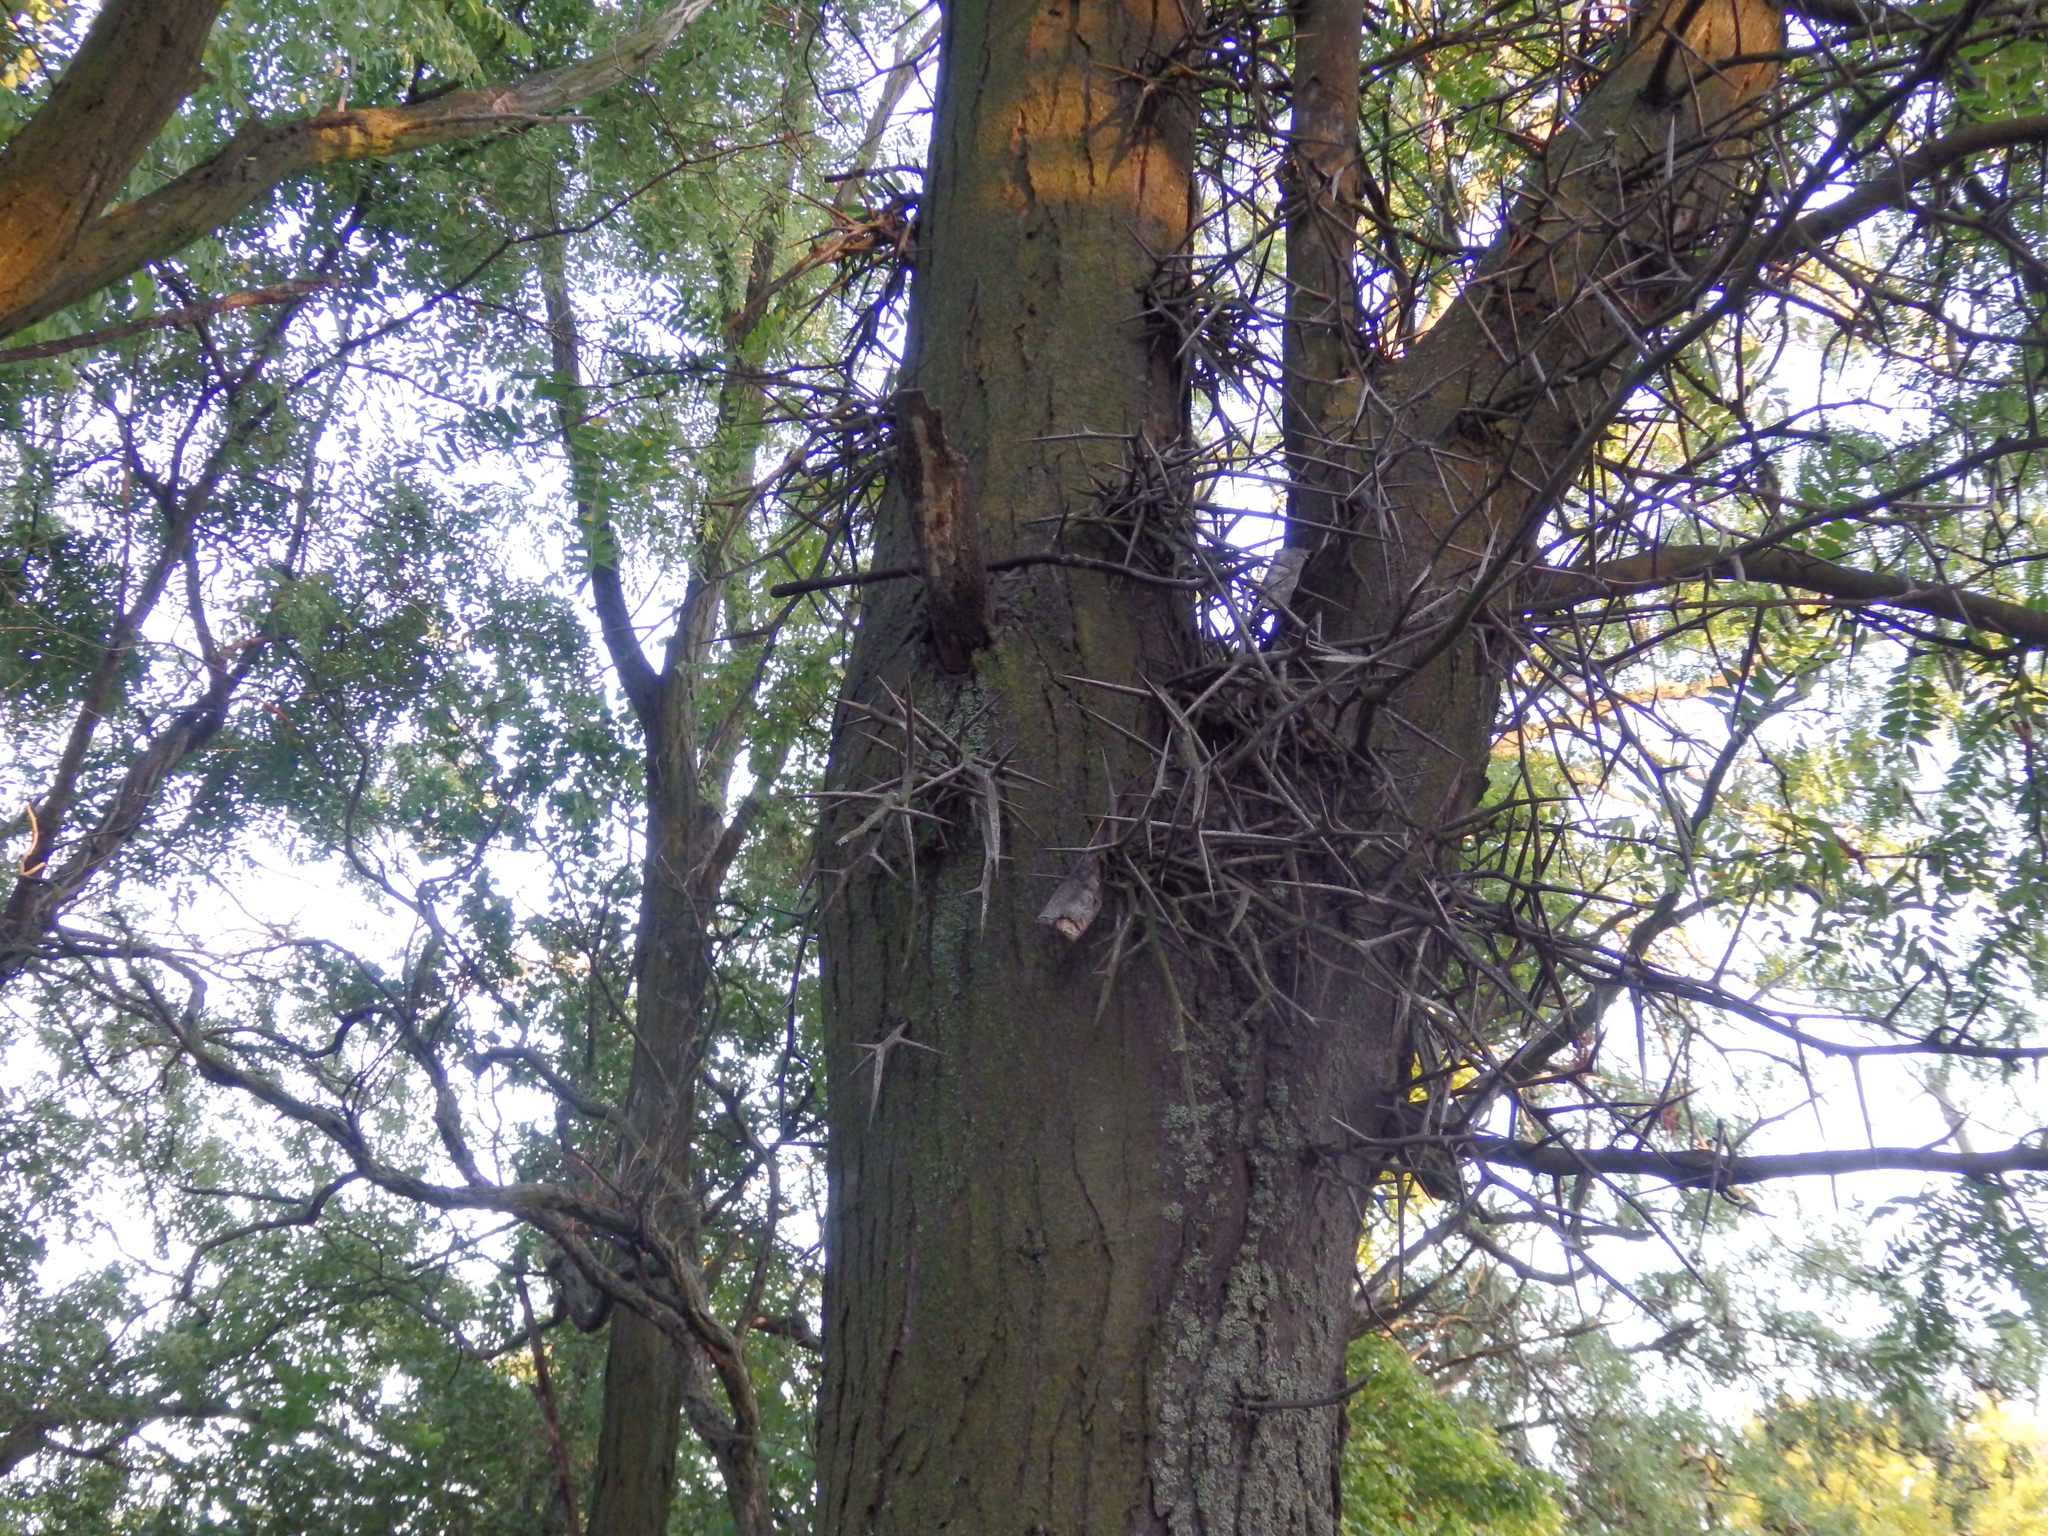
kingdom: Plantae
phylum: Tracheophyta
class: Magnoliopsida
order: Fabales
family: Fabaceae
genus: Gleditsia
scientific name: Gleditsia triacanthos
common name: Common honeylocust
